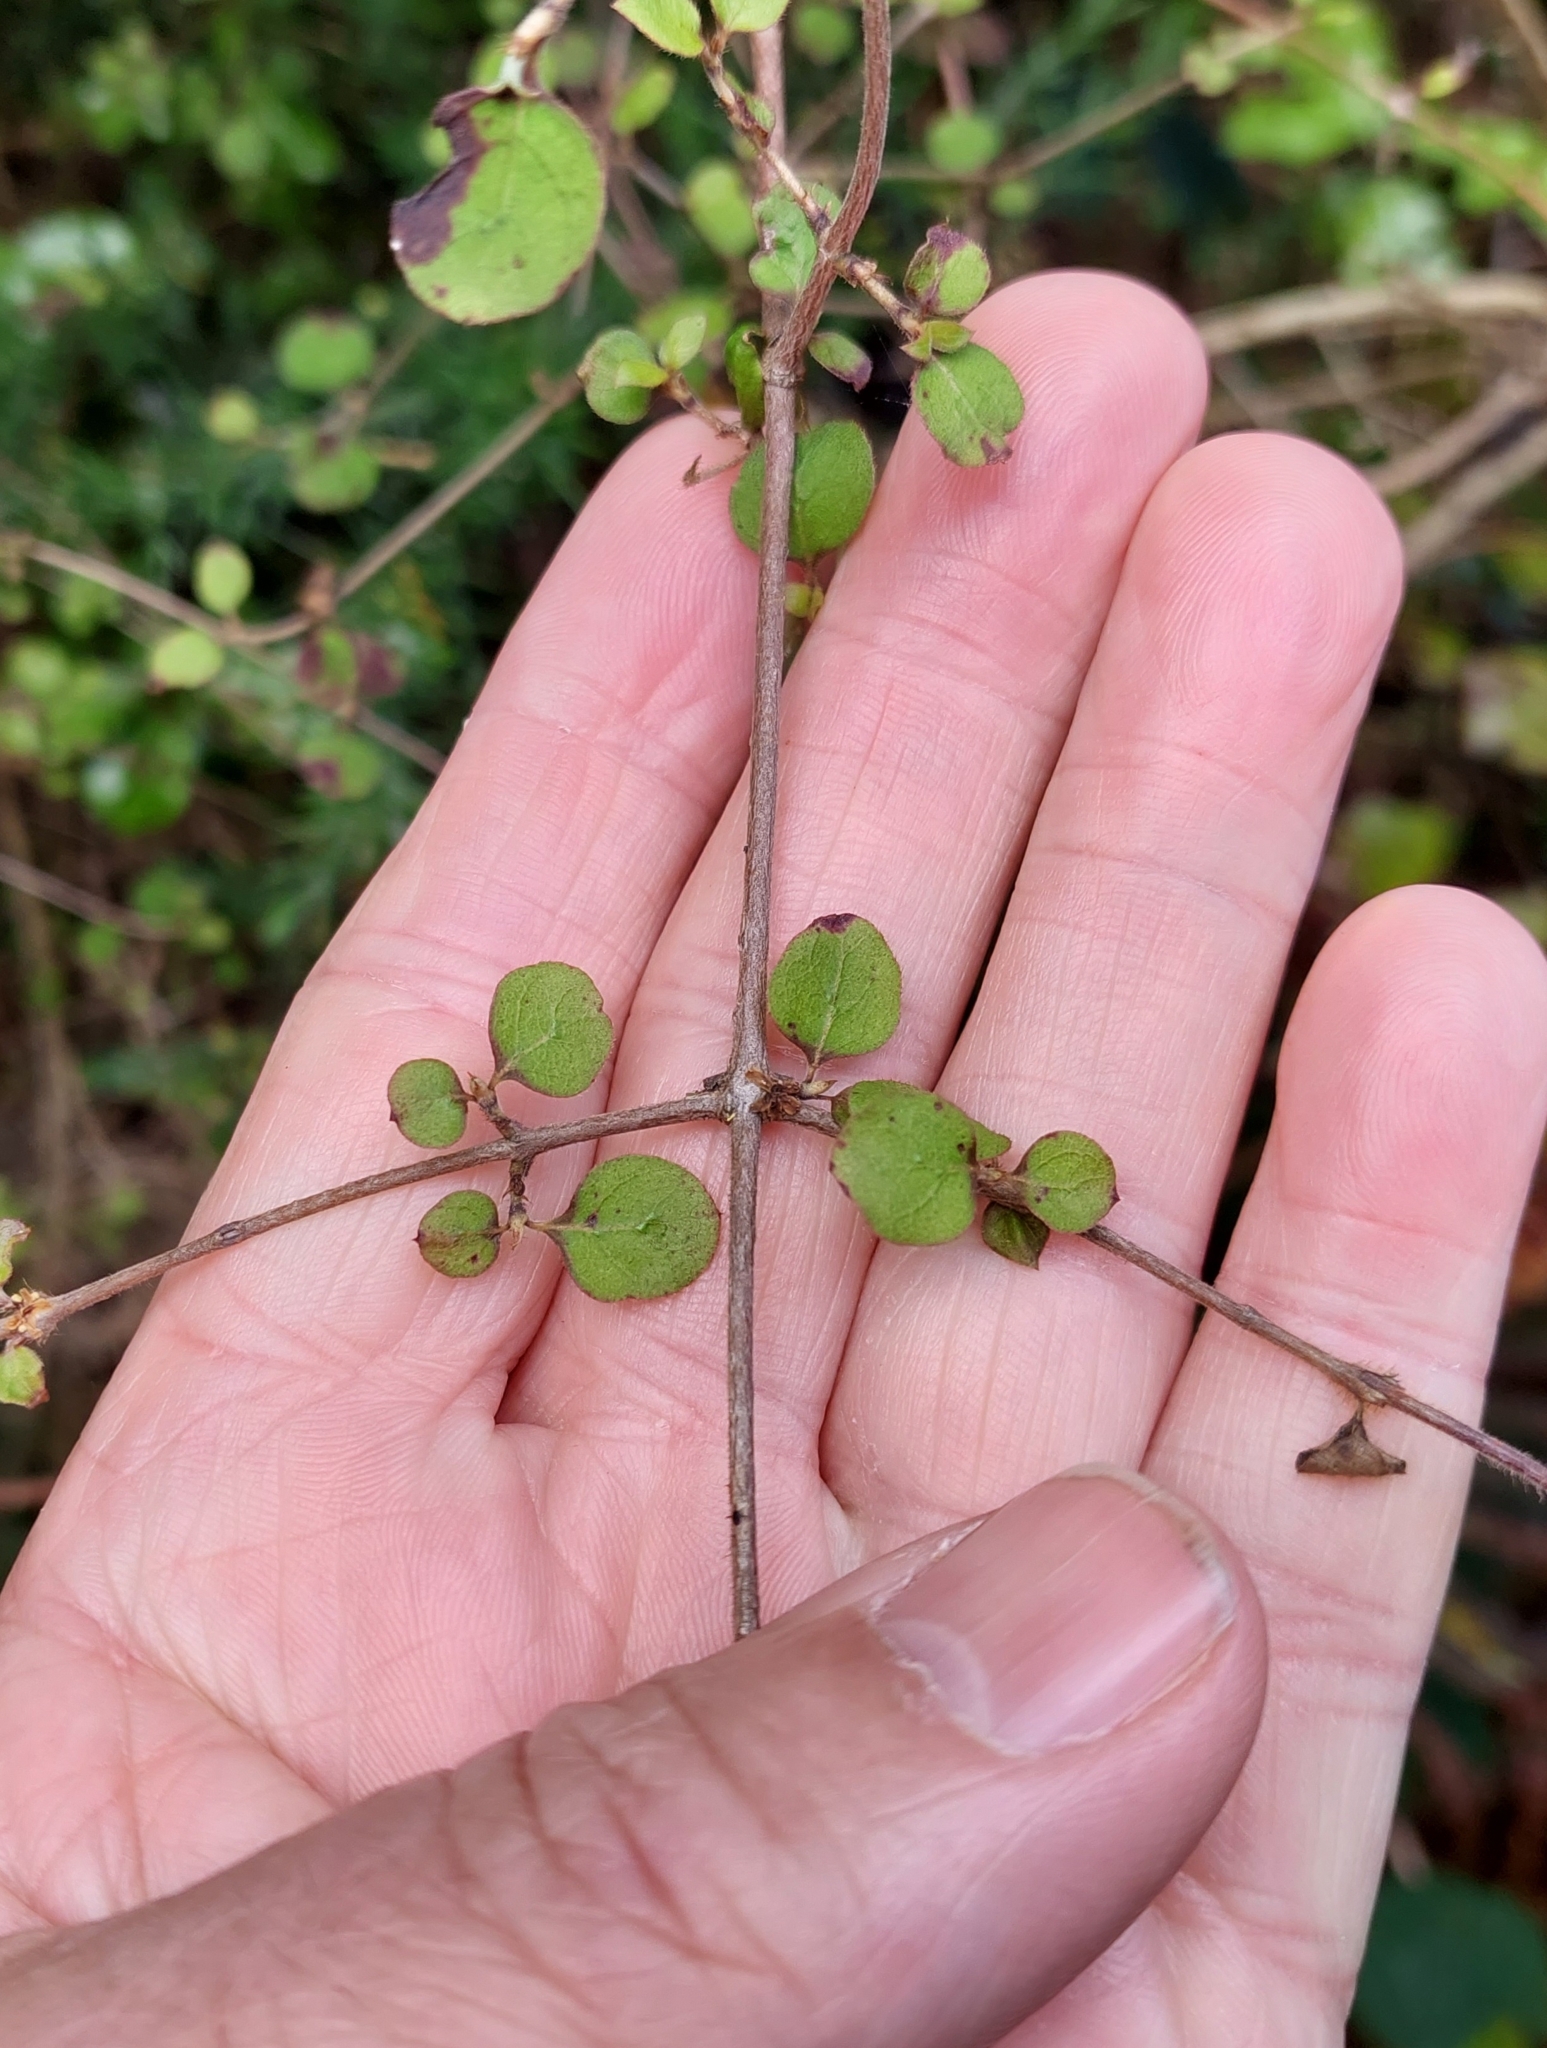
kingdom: Plantae
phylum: Tracheophyta
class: Magnoliopsida
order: Gentianales
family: Rubiaceae
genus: Coprosma
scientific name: Coprosma rotundifolia
